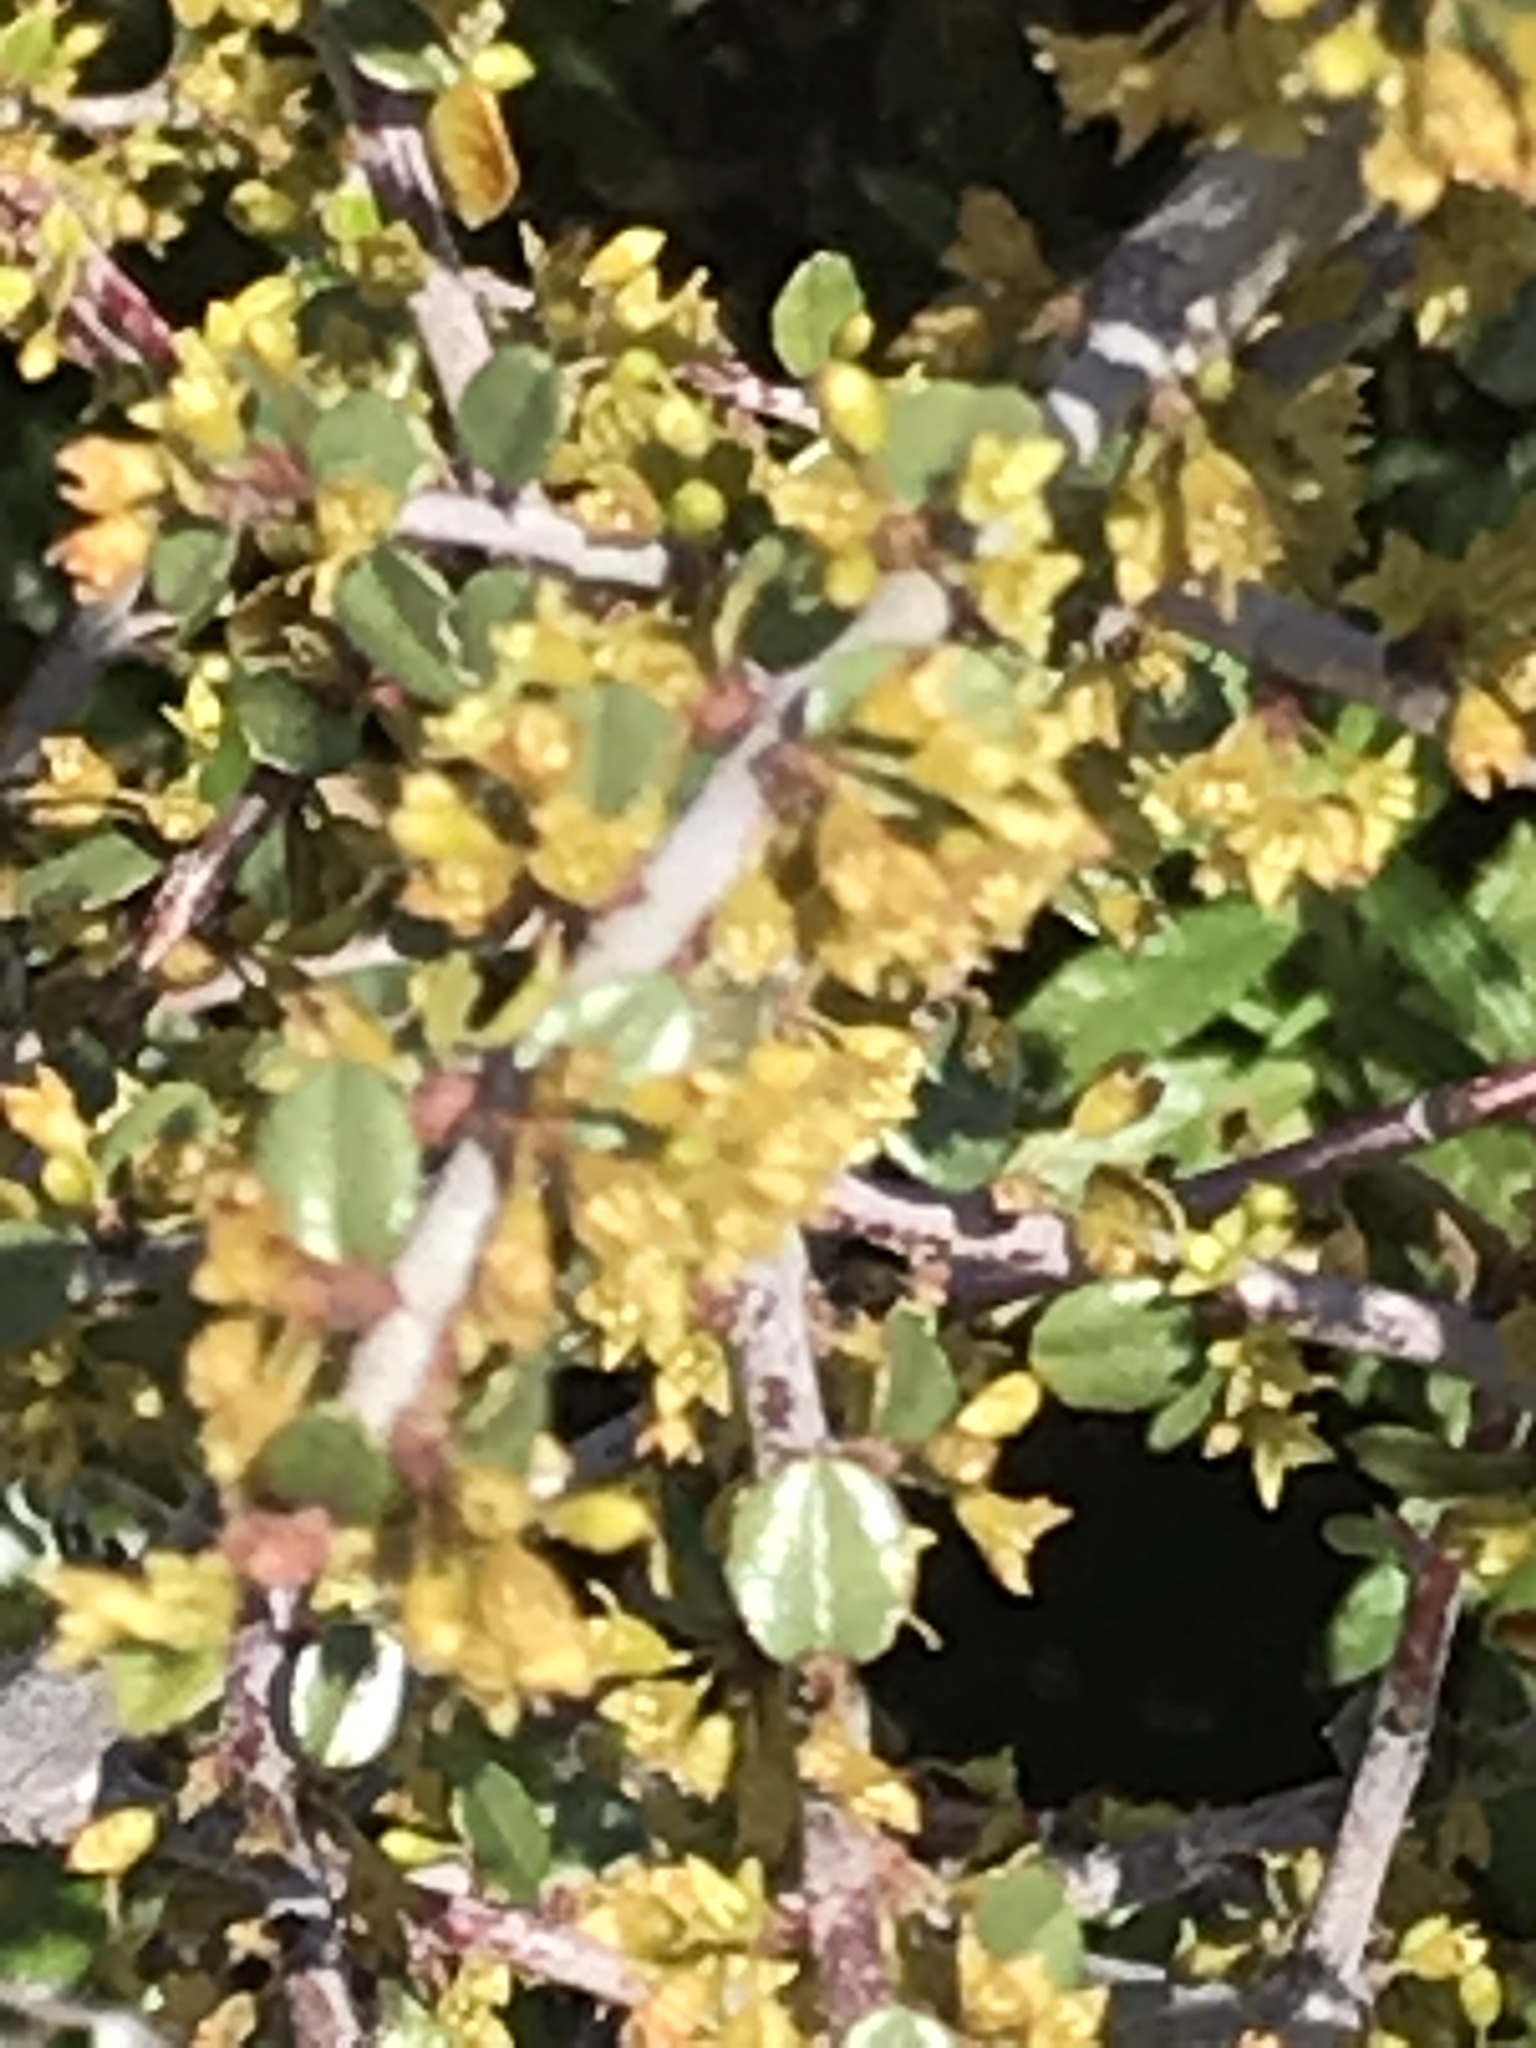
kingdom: Plantae
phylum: Tracheophyta
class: Magnoliopsida
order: Rosales
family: Rhamnaceae
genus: Endotropis
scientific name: Endotropis crocea
